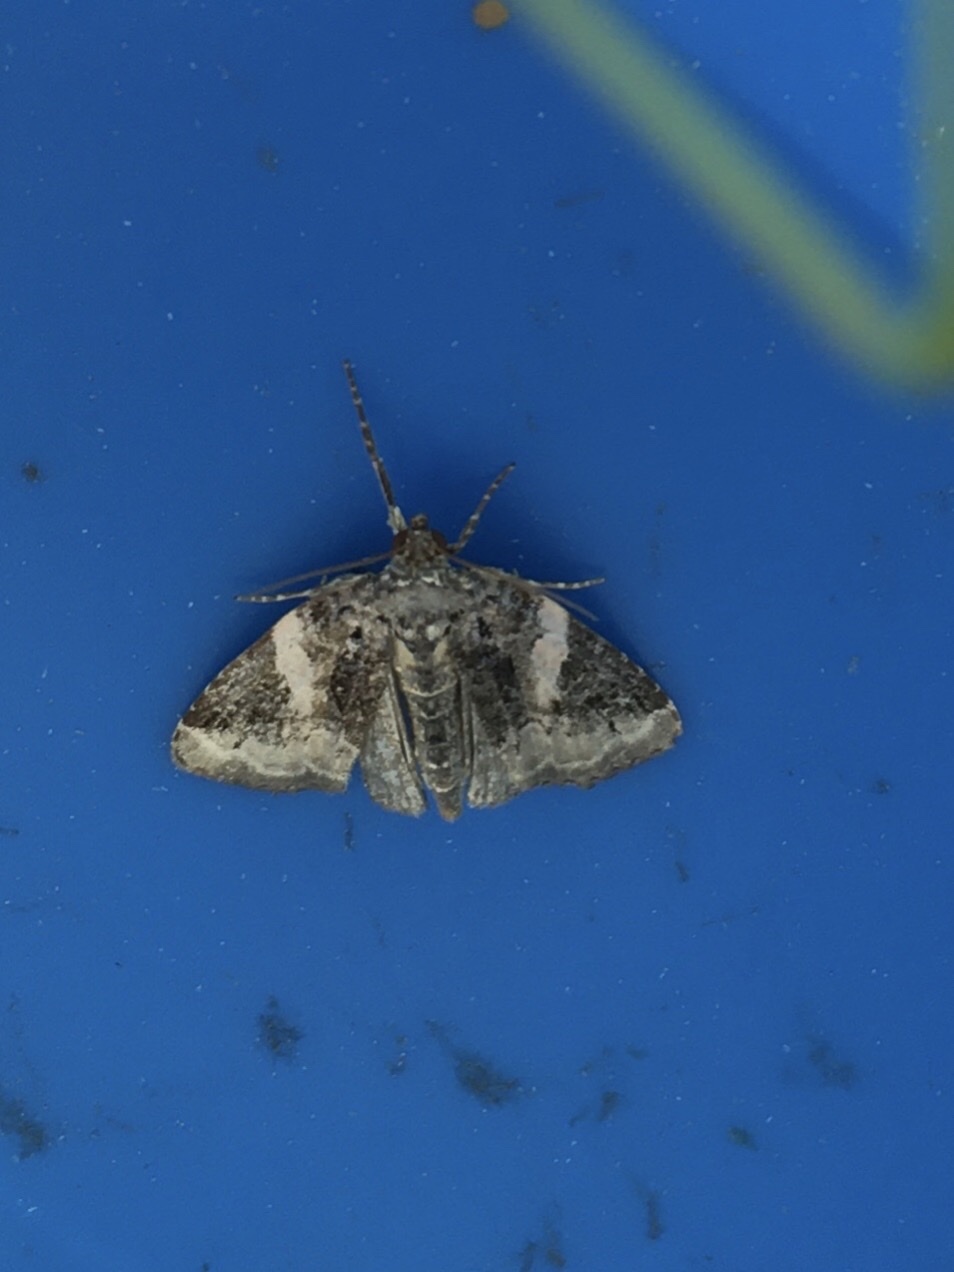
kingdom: Animalia
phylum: Arthropoda
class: Insecta
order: Lepidoptera
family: Noctuidae
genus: Pseudeustrotia
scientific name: Pseudeustrotia carneola
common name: Pink-barred lithacodia moth
